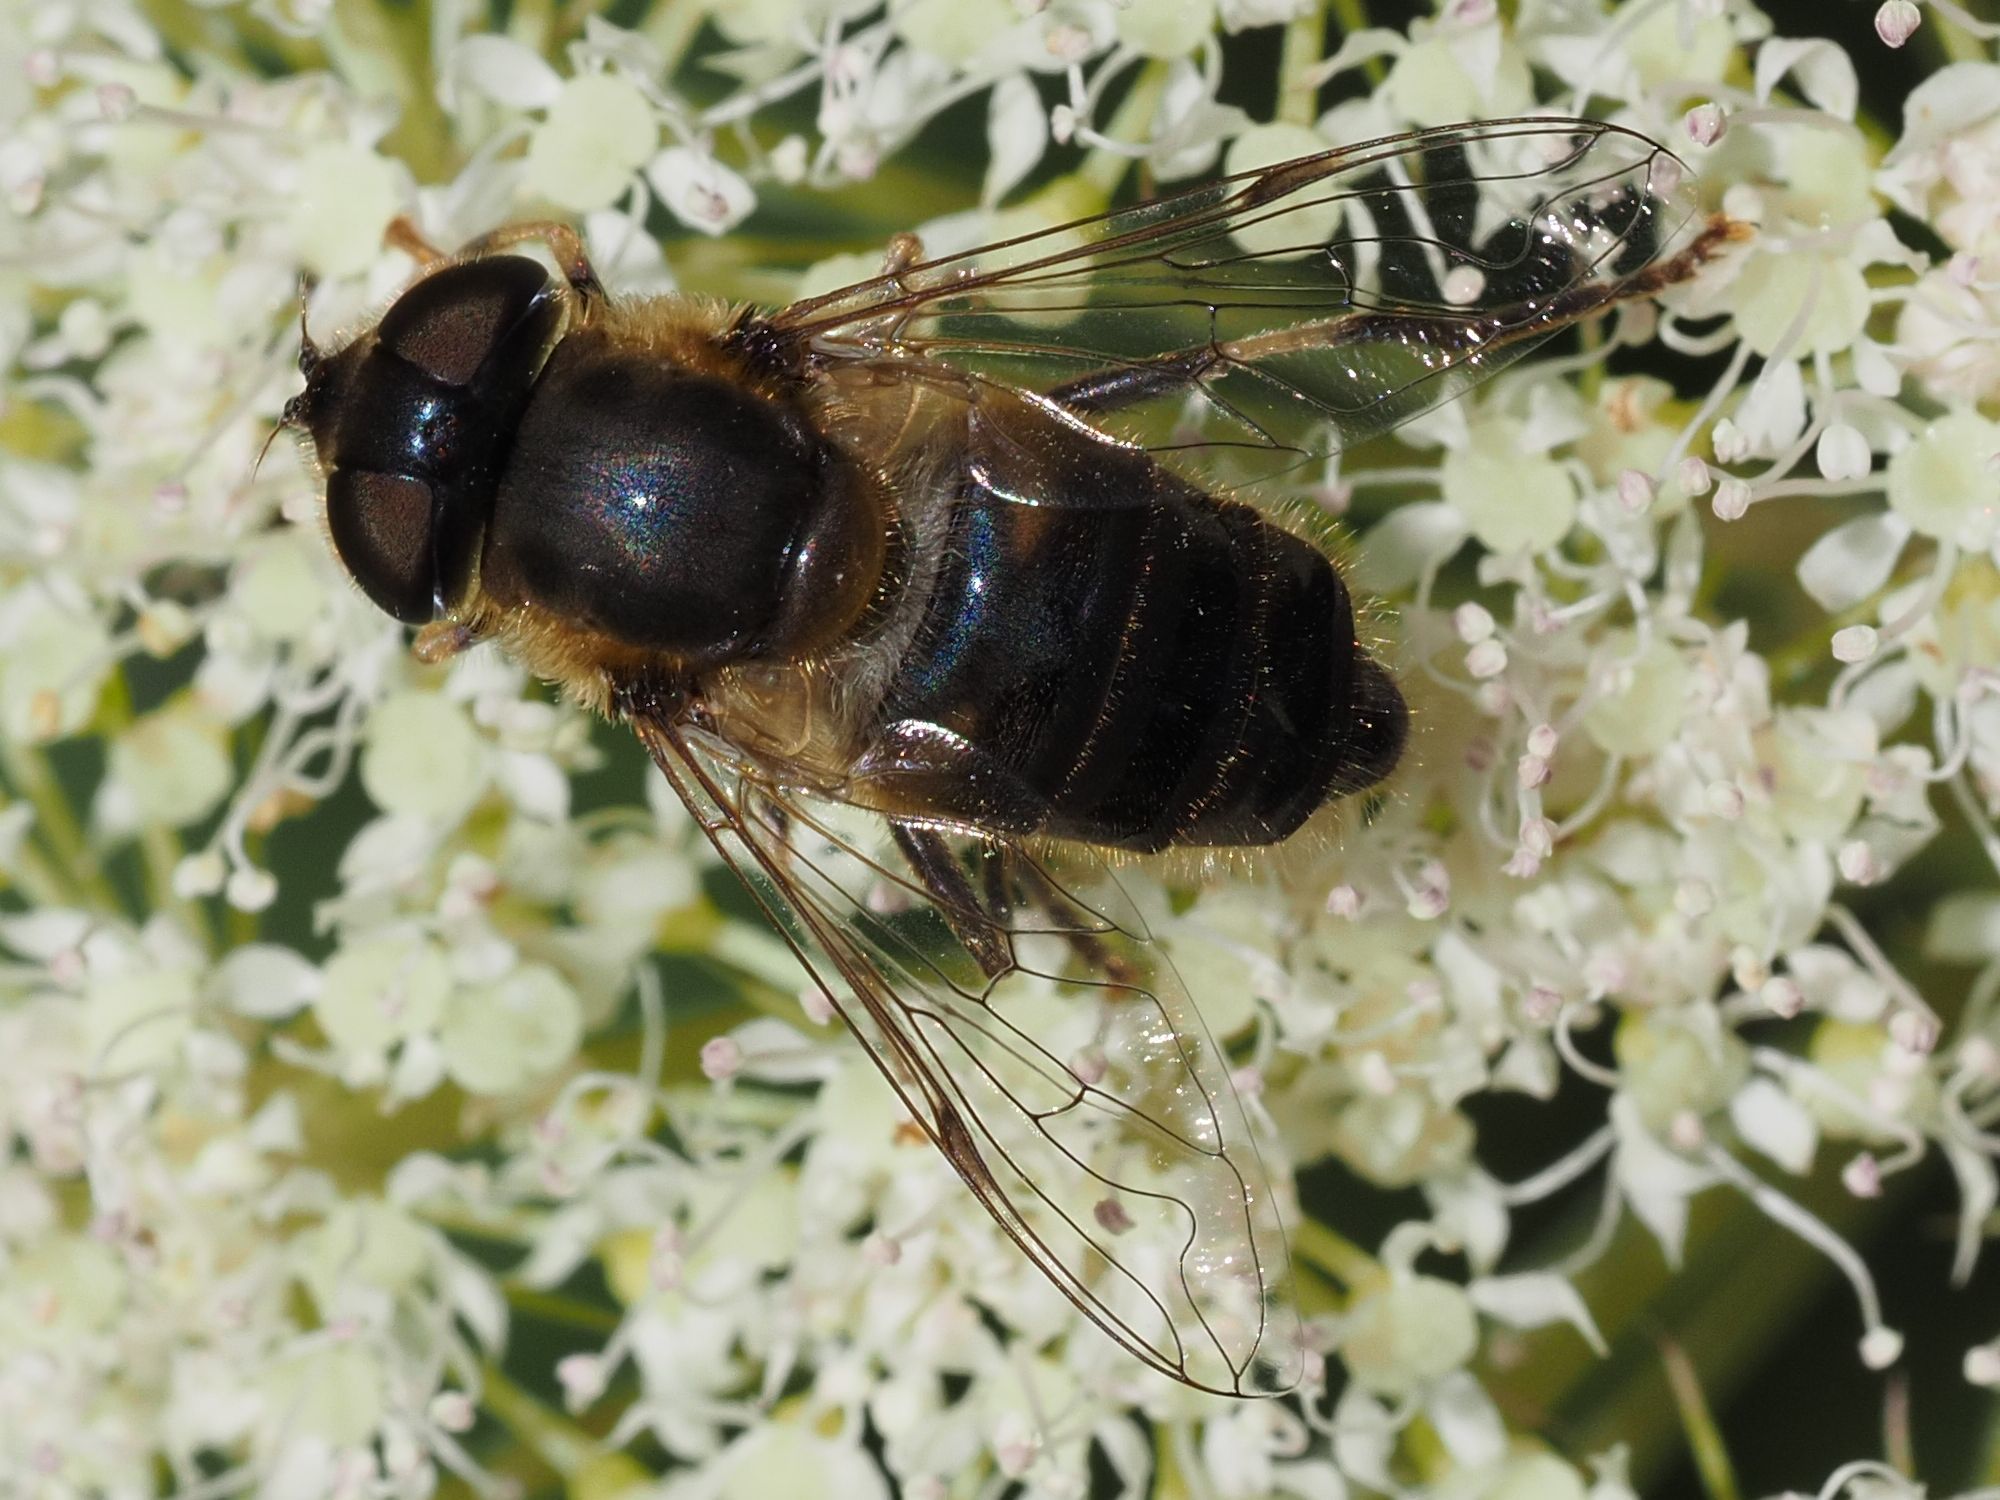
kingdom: Animalia
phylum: Arthropoda
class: Insecta
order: Diptera
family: Syrphidae
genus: Eristalis
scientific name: Eristalis pertinax
